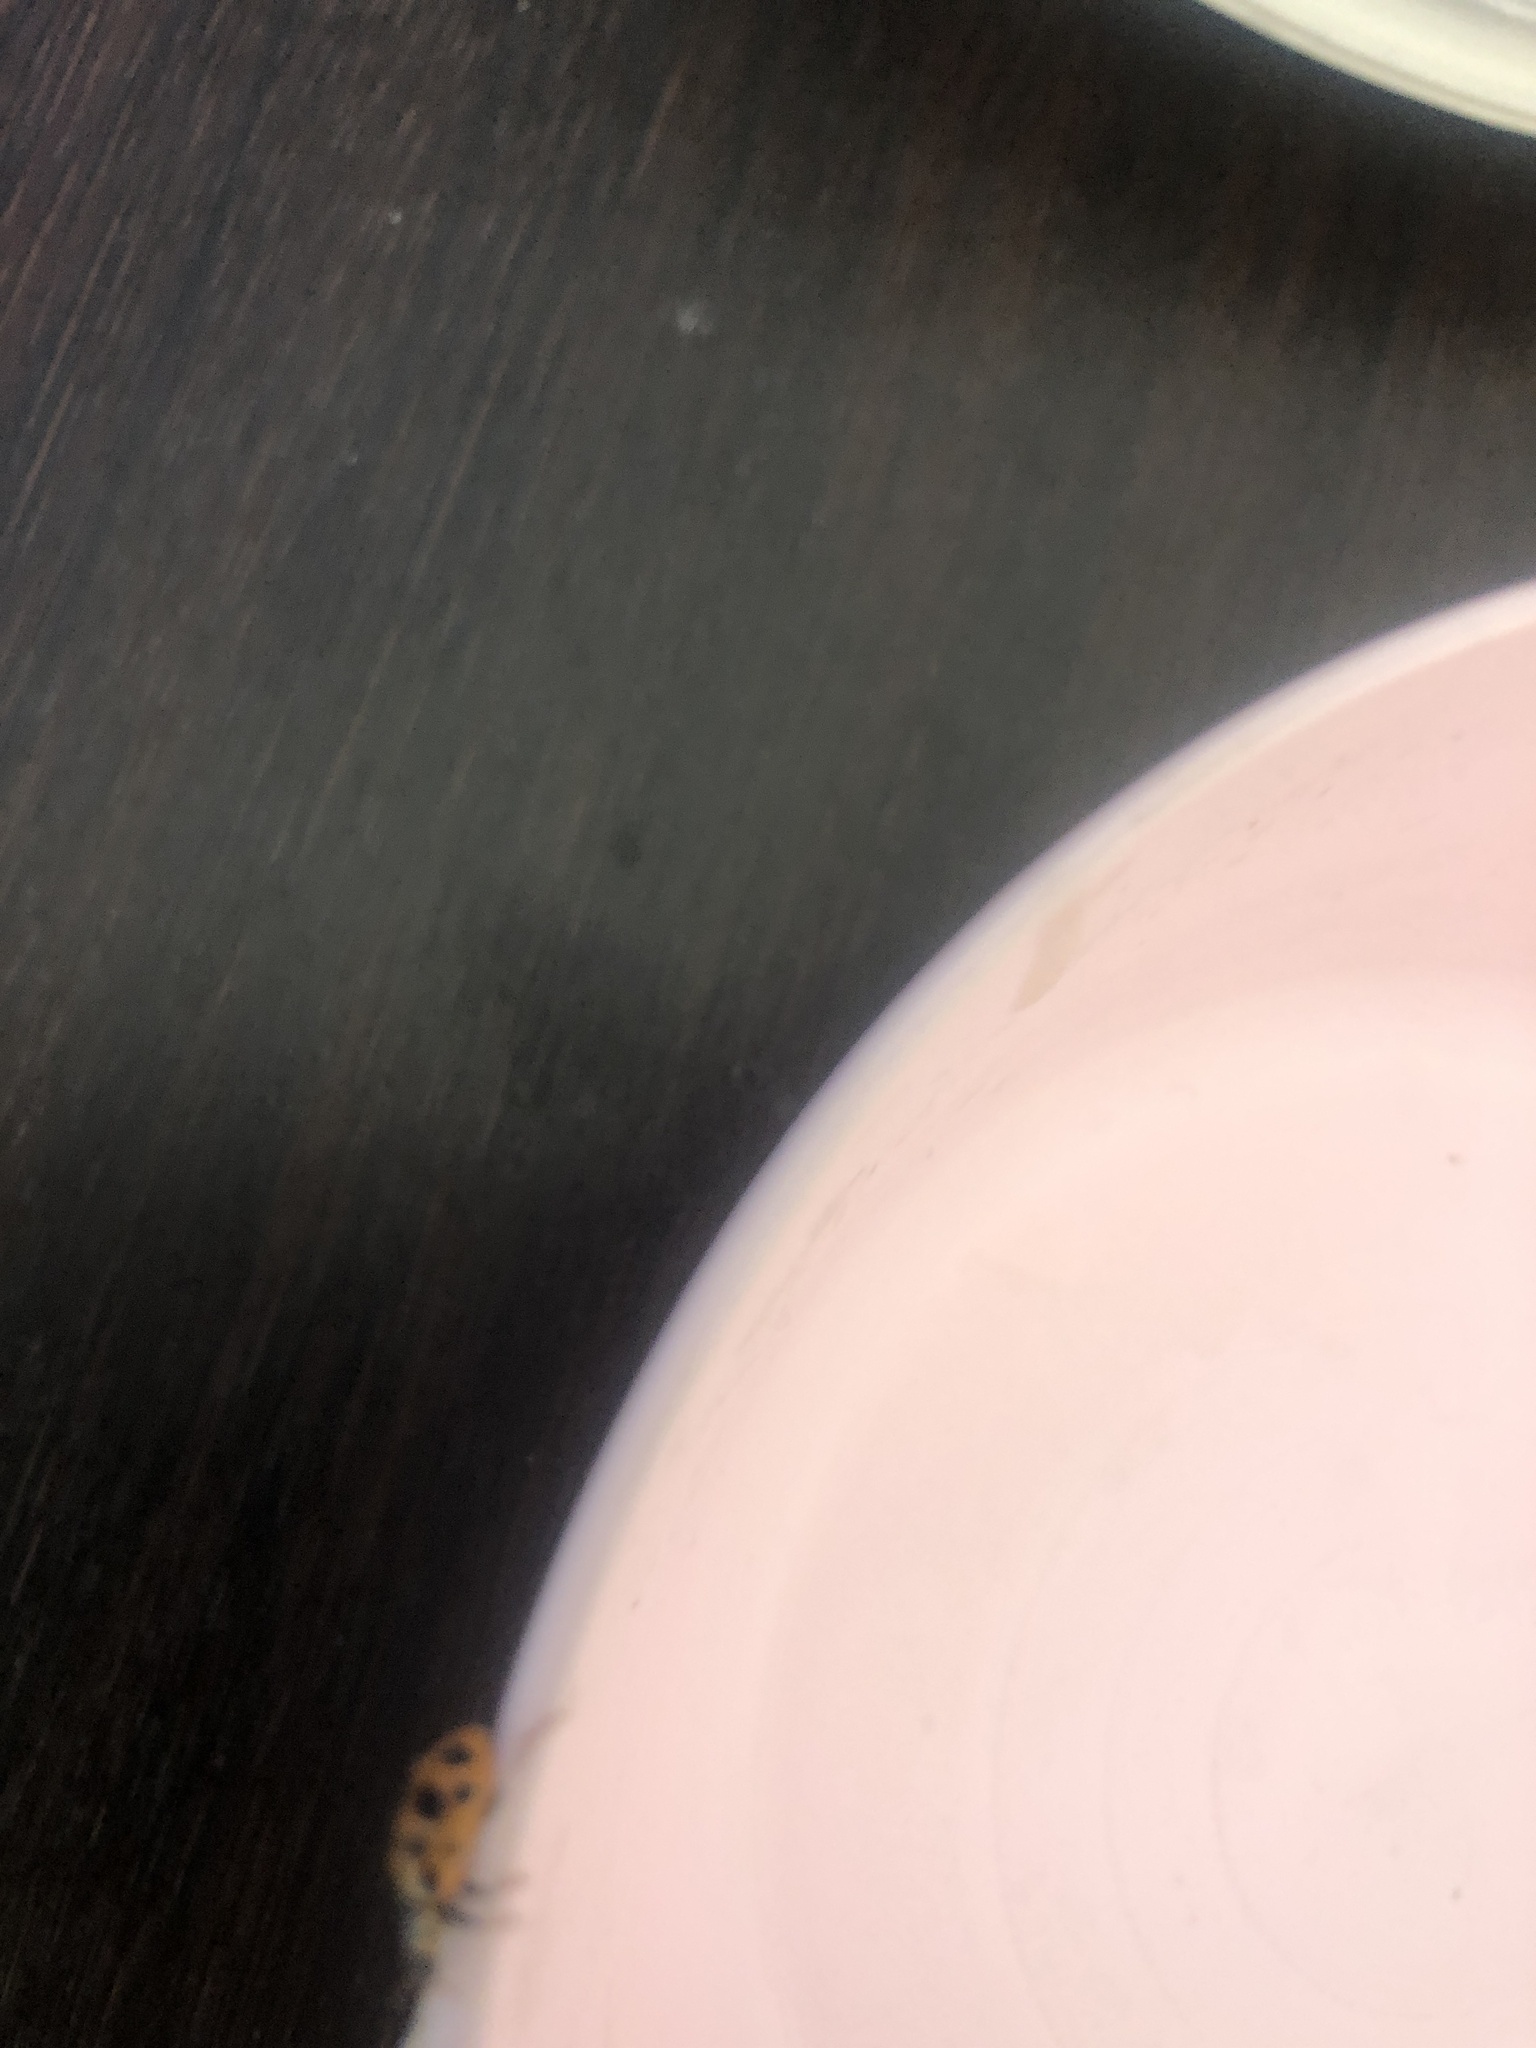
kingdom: Animalia
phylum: Arthropoda
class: Insecta
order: Coleoptera
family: Coccinellidae
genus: Hippodamia
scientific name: Hippodamia tredecimpunctata
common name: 13-spot ladybird
